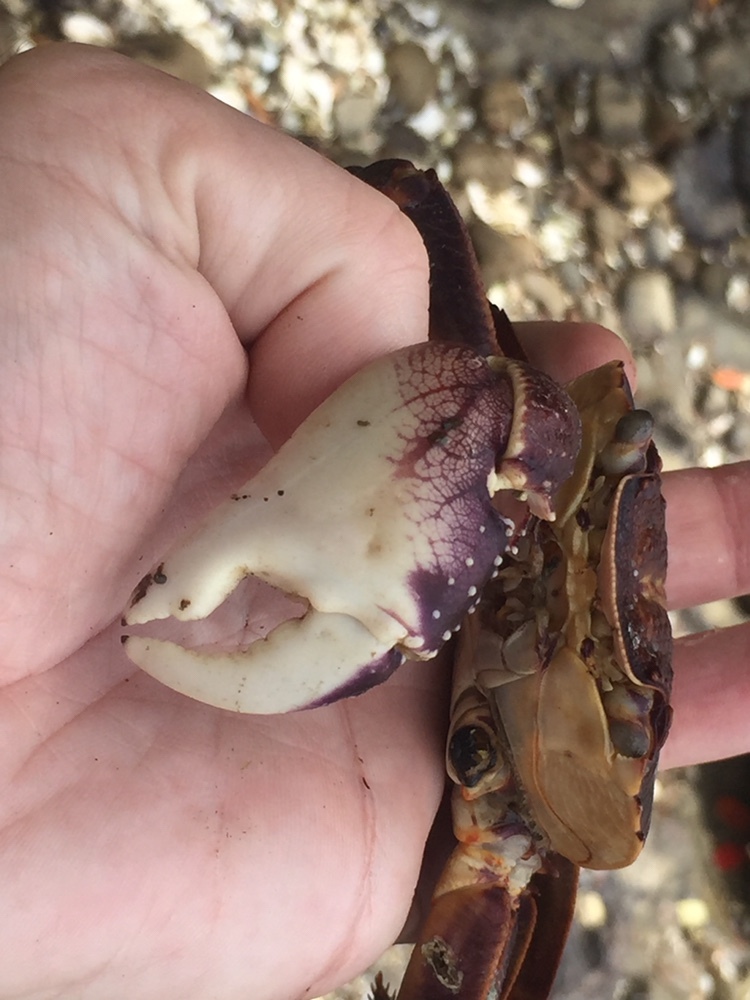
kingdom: Animalia
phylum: Arthropoda
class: Malacostraca
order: Decapoda
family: Grapsidae
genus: Leptograpsus
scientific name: Leptograpsus variegatus
